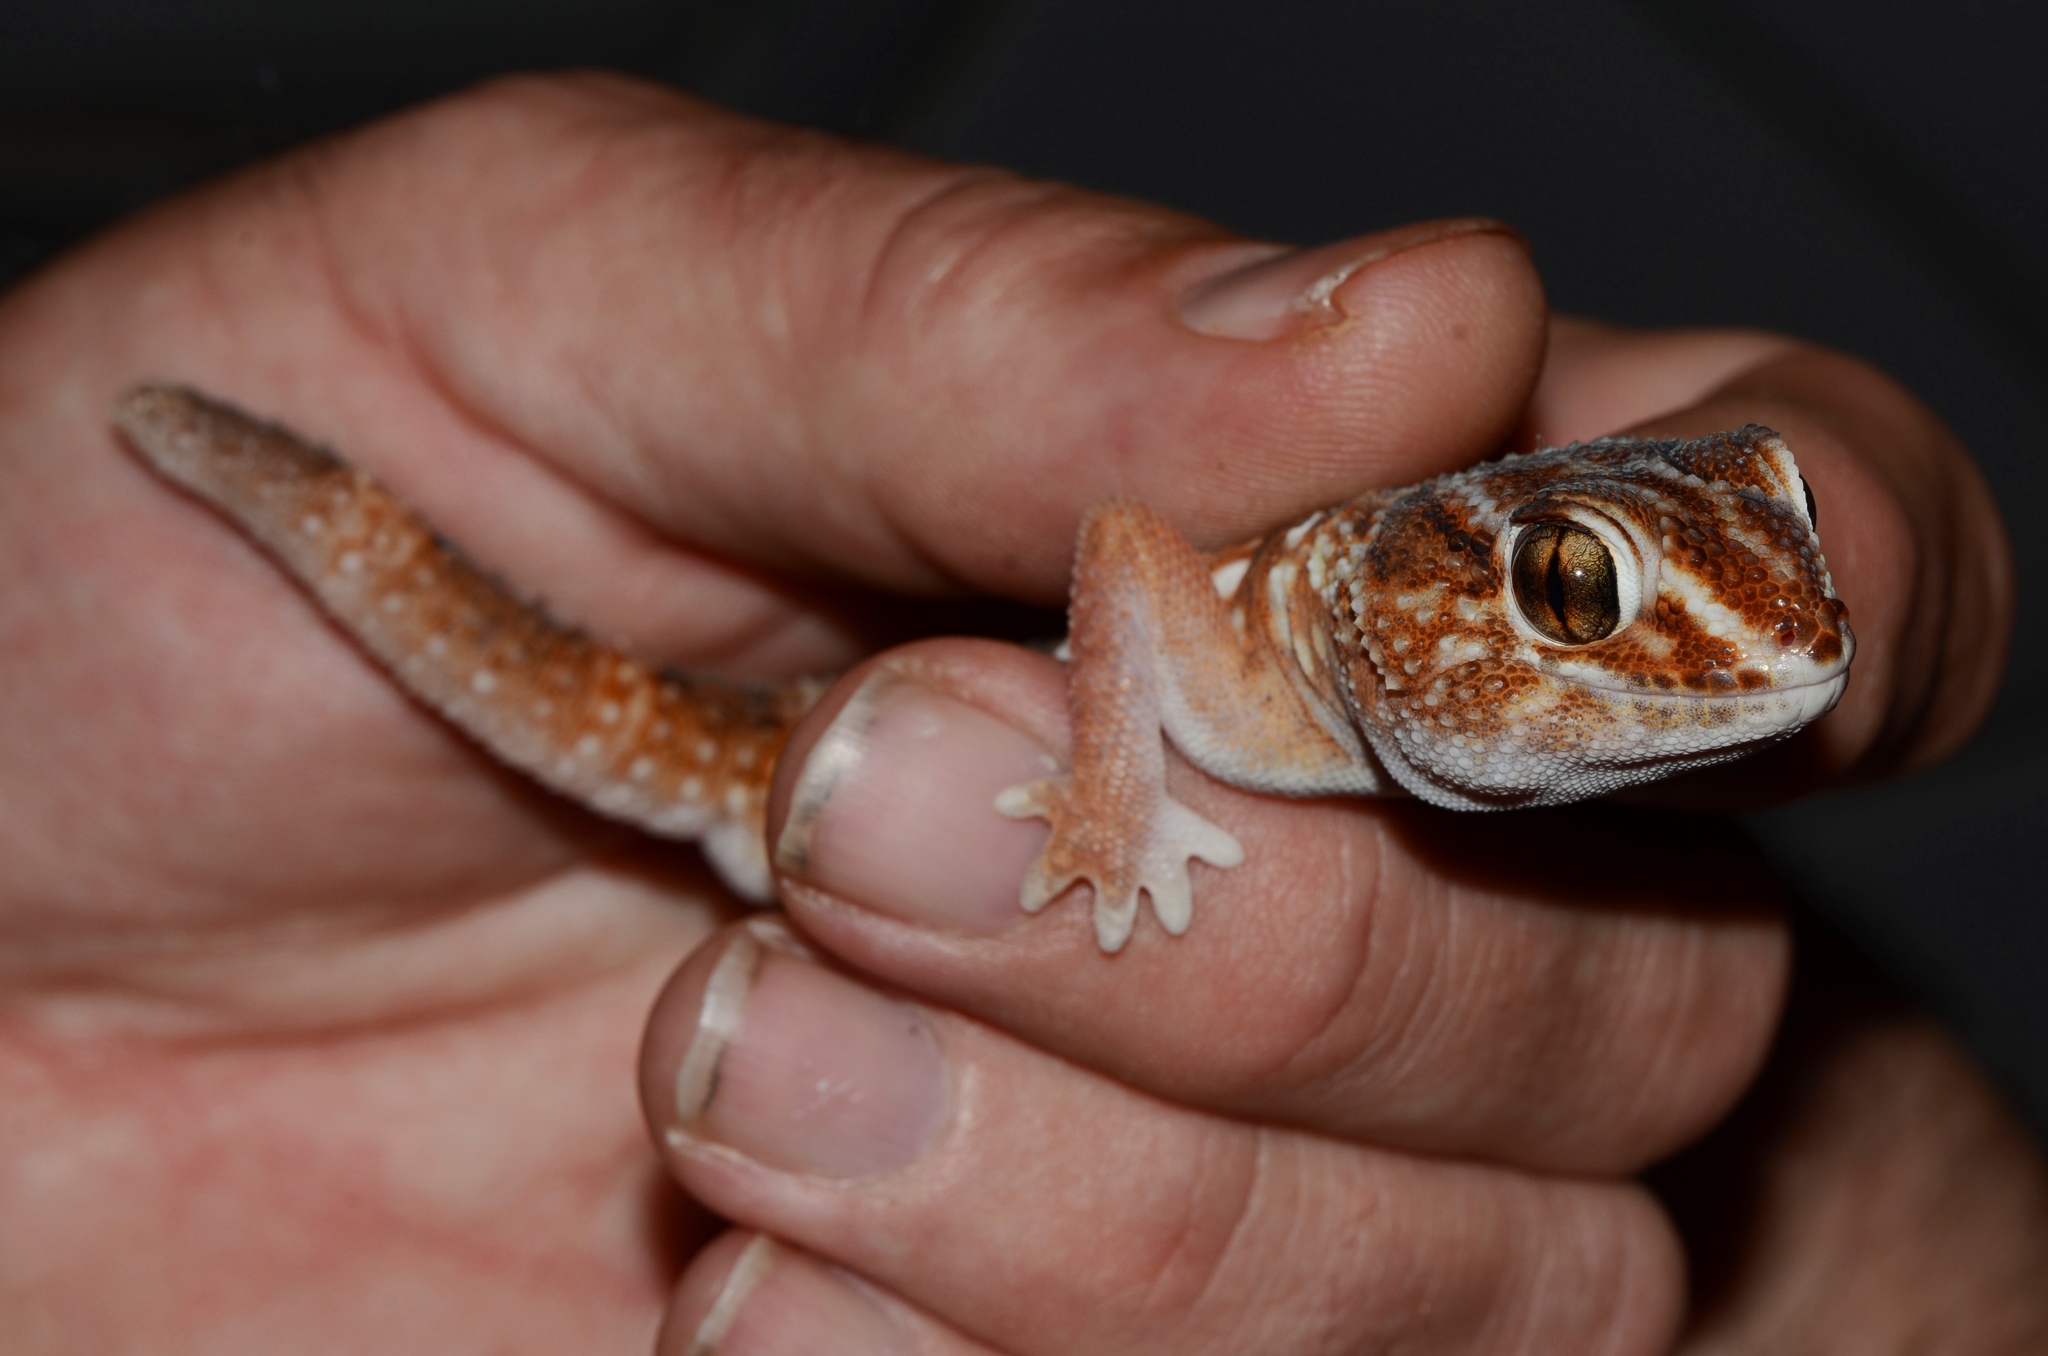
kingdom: Animalia
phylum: Chordata
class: Squamata
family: Gekkonidae
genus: Chondrodactylus
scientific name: Chondrodactylus angulifer
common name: Common giant ground gecko
